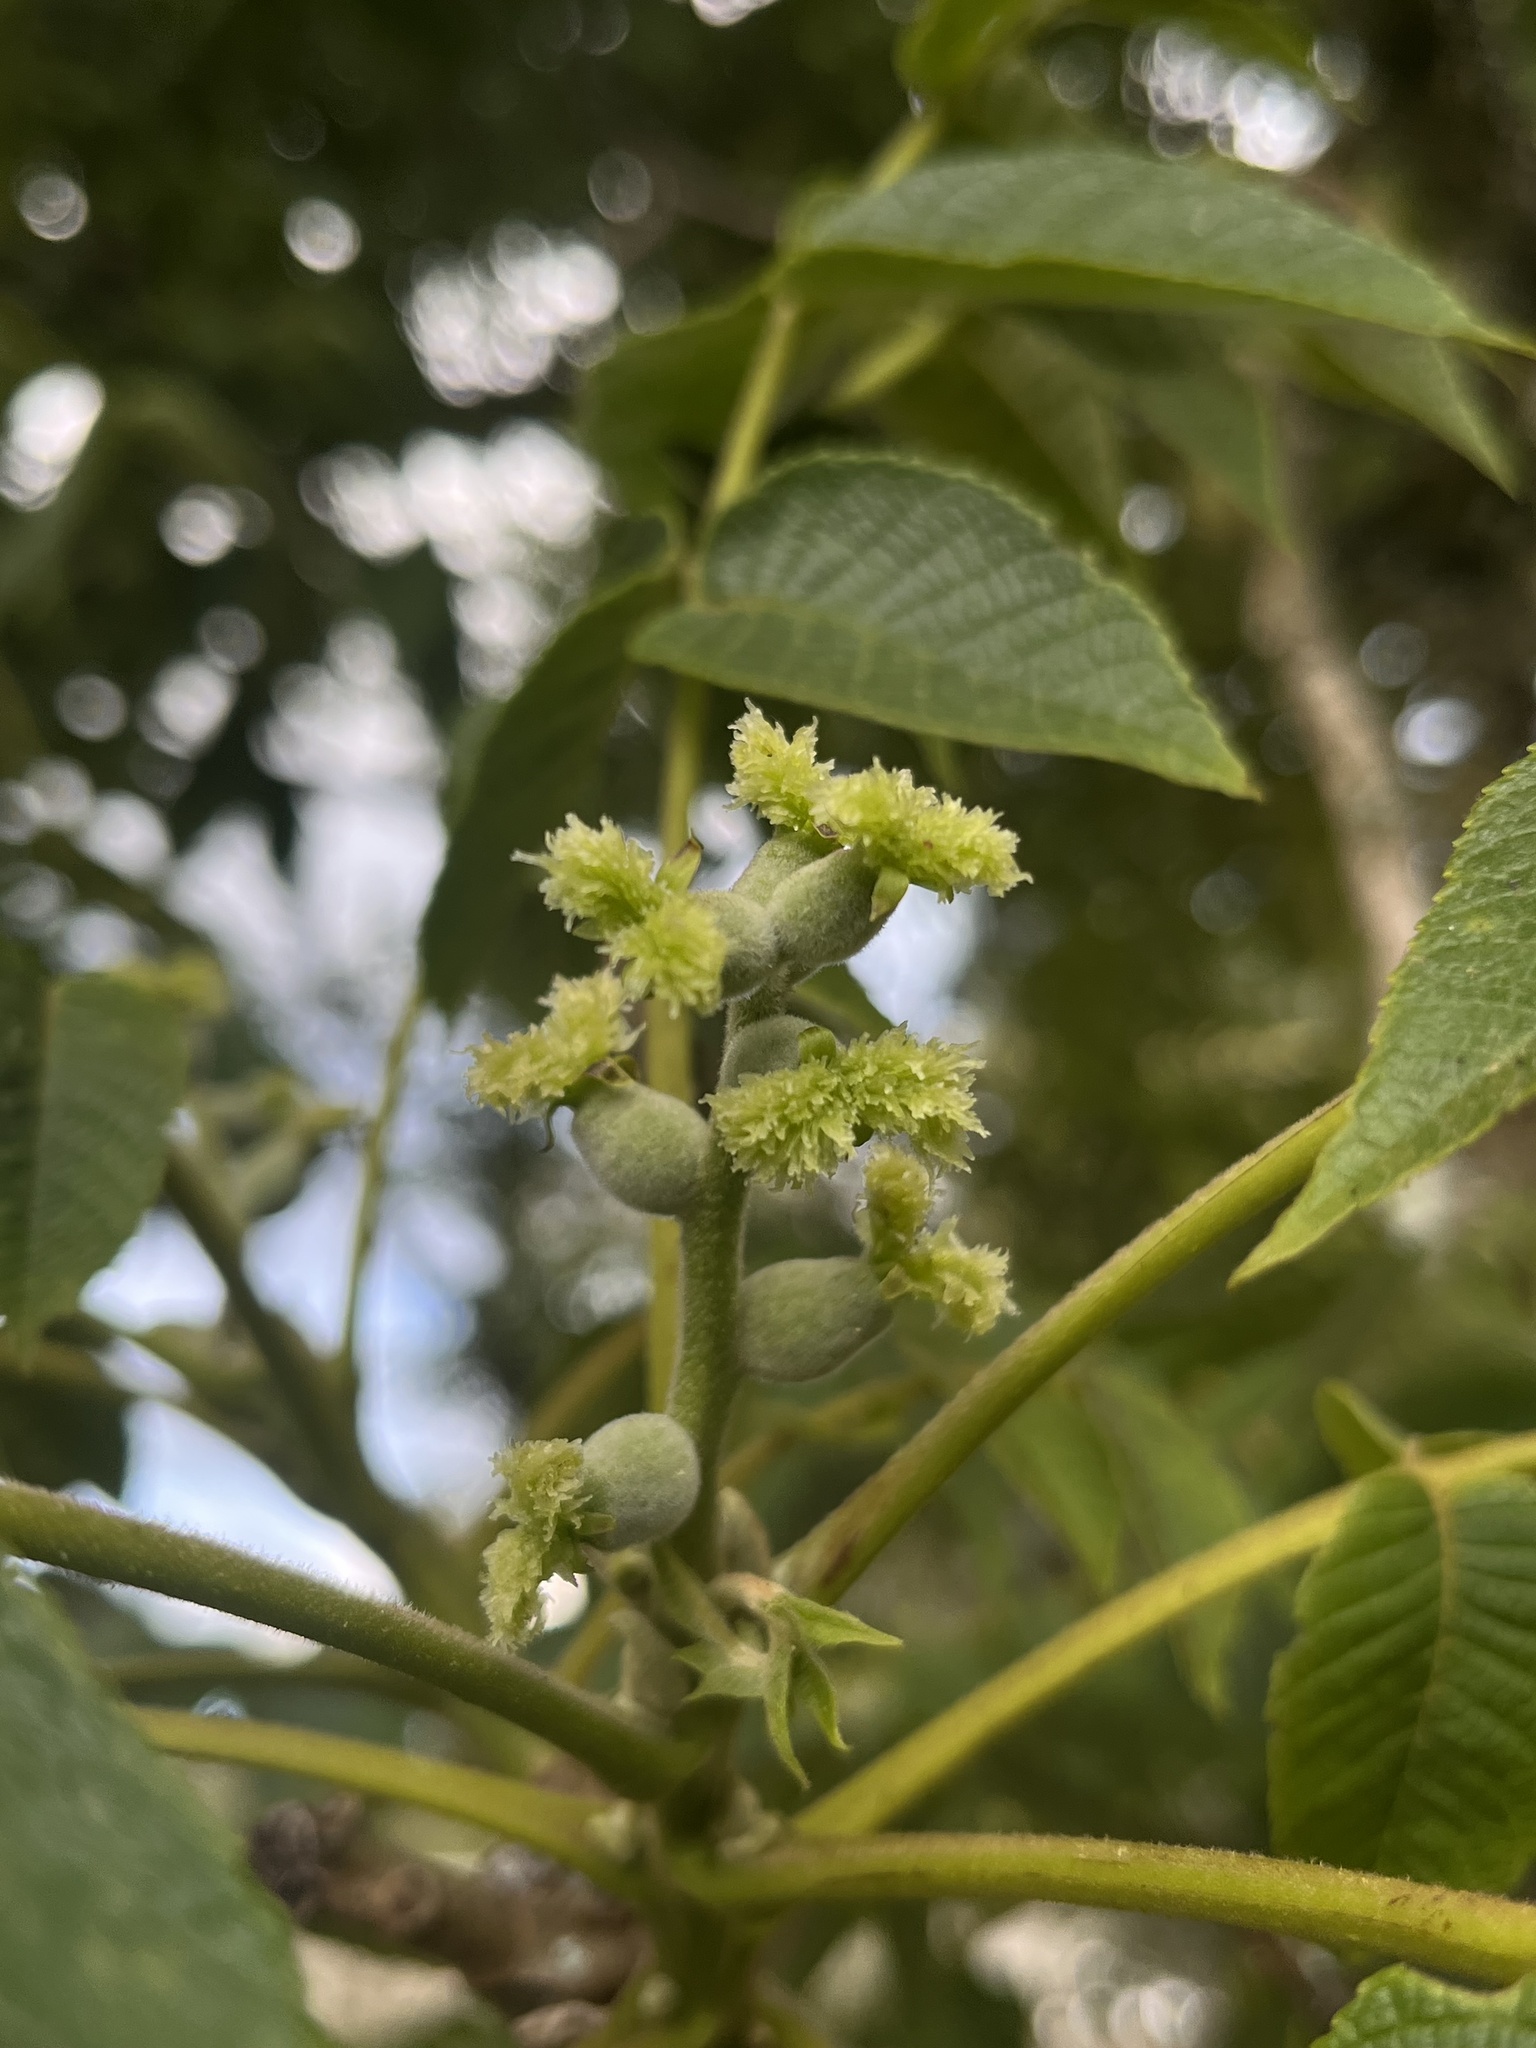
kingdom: Plantae
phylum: Tracheophyta
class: Magnoliopsida
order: Fagales
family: Juglandaceae
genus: Juglans
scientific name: Juglans neotropica
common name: Andean walnut
